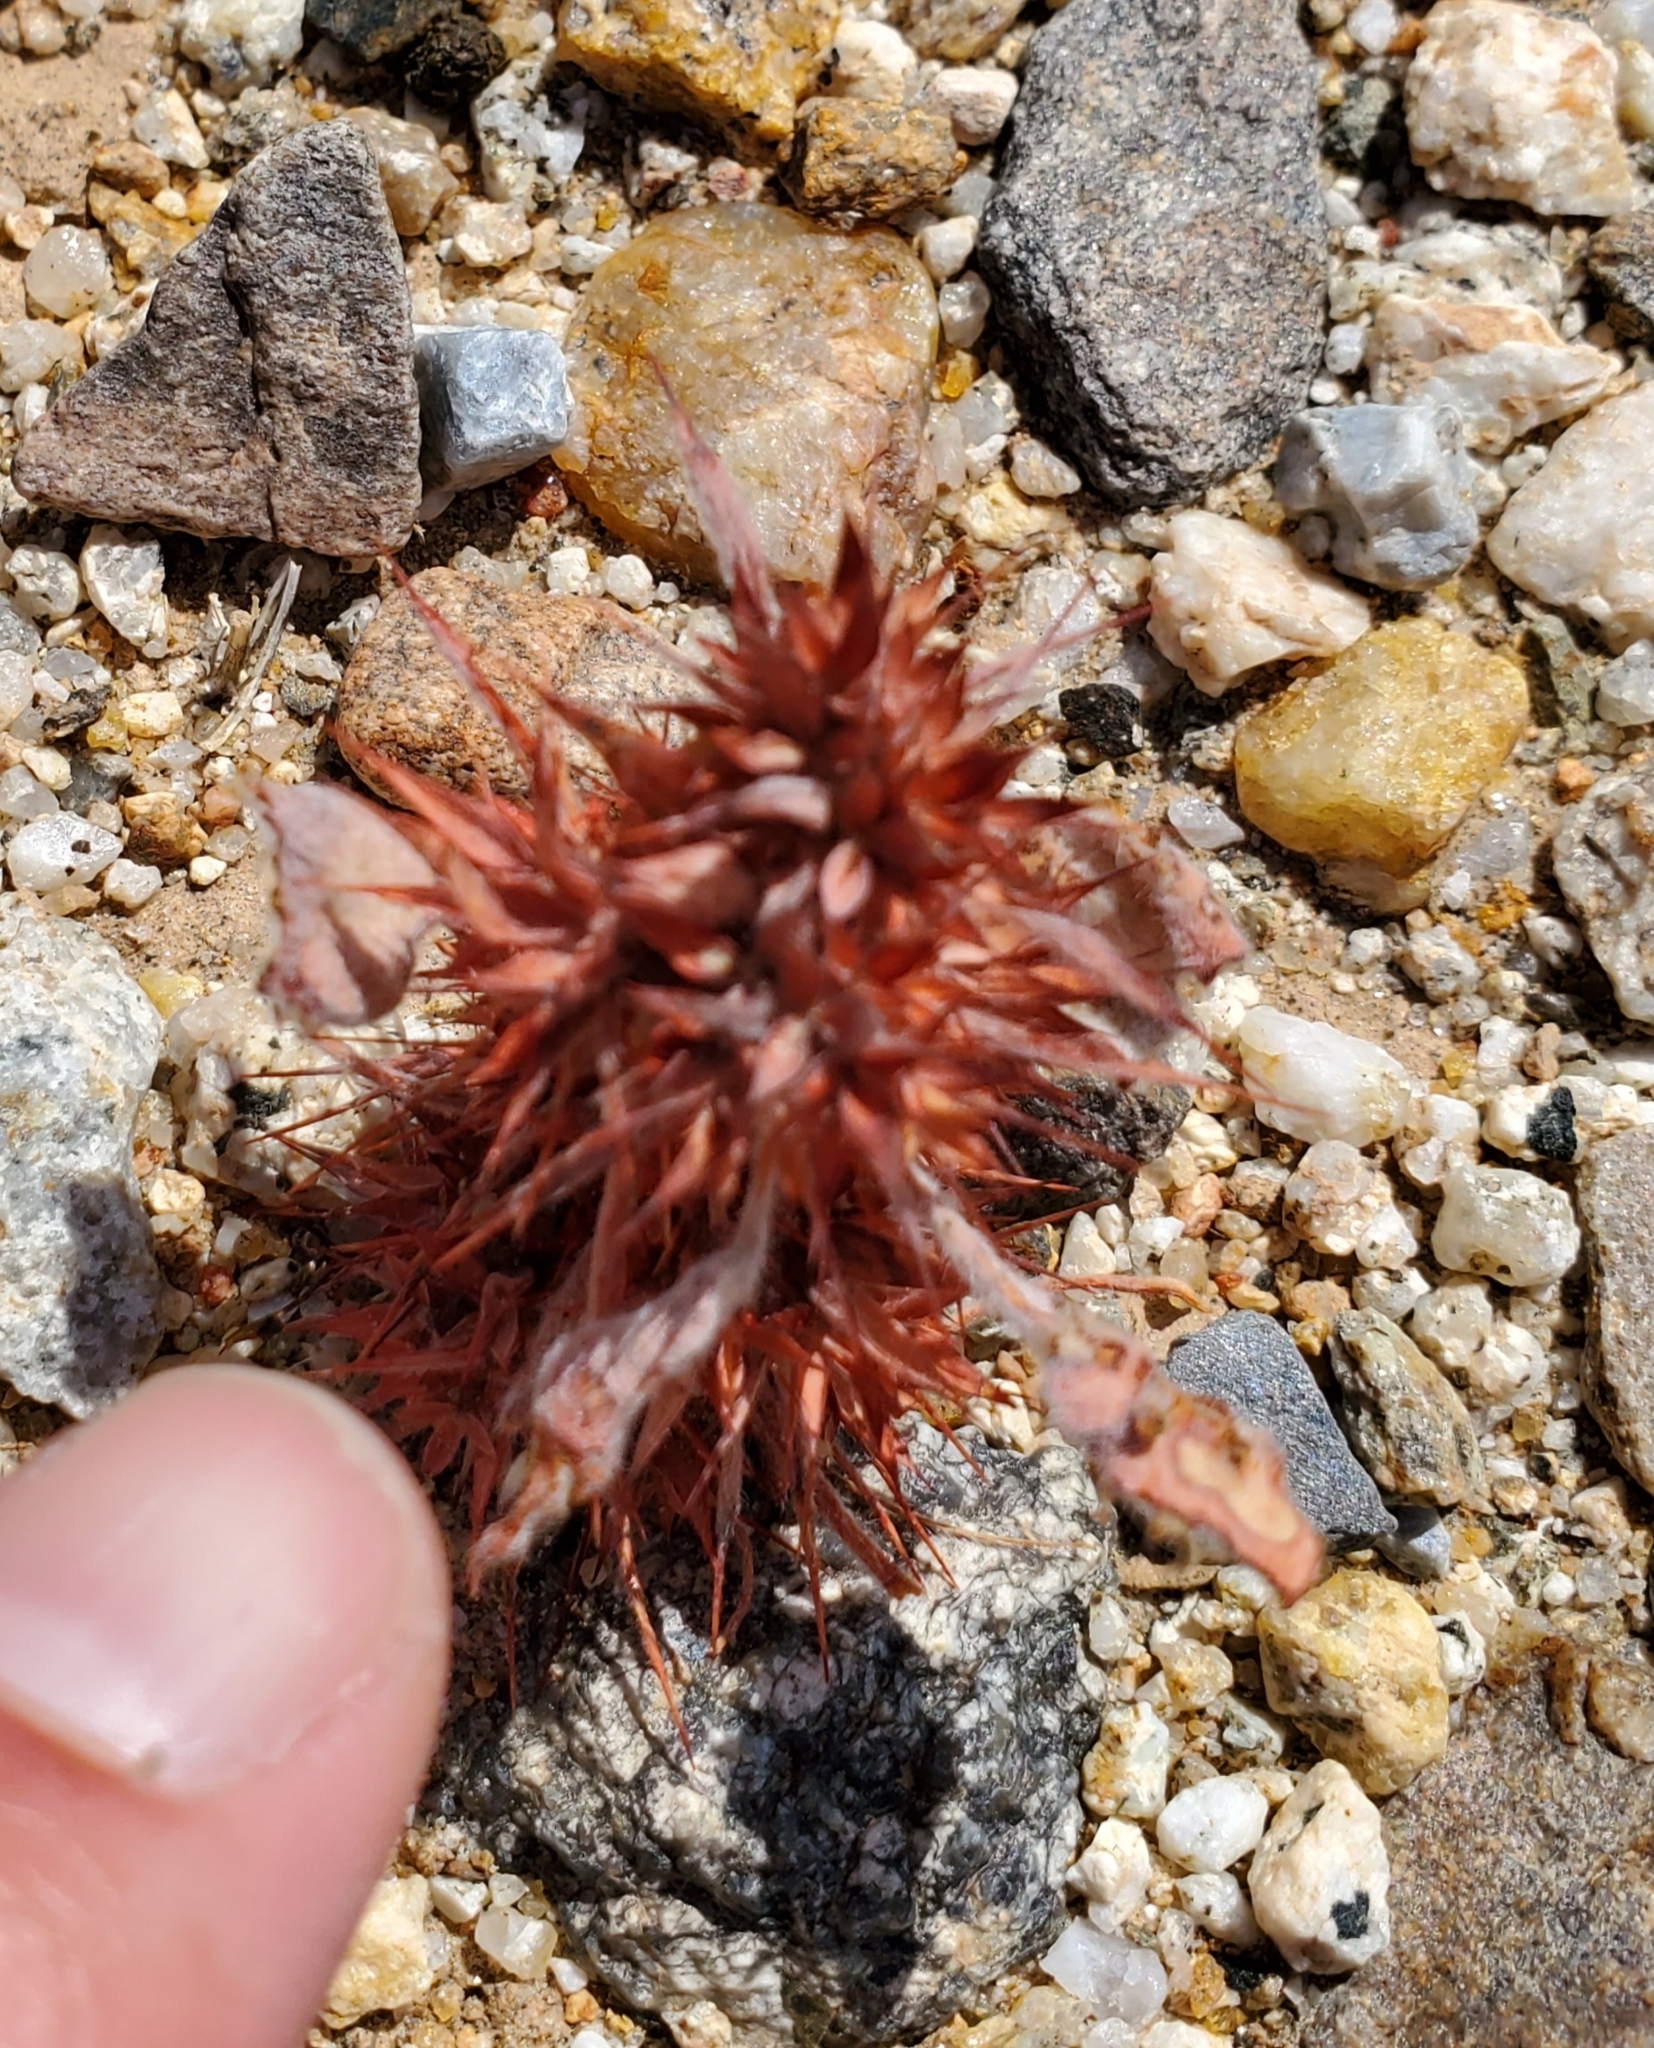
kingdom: Plantae
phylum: Tracheophyta
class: Magnoliopsida
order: Caryophyllales
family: Polygonaceae
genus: Chorizanthe
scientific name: Chorizanthe rigida
